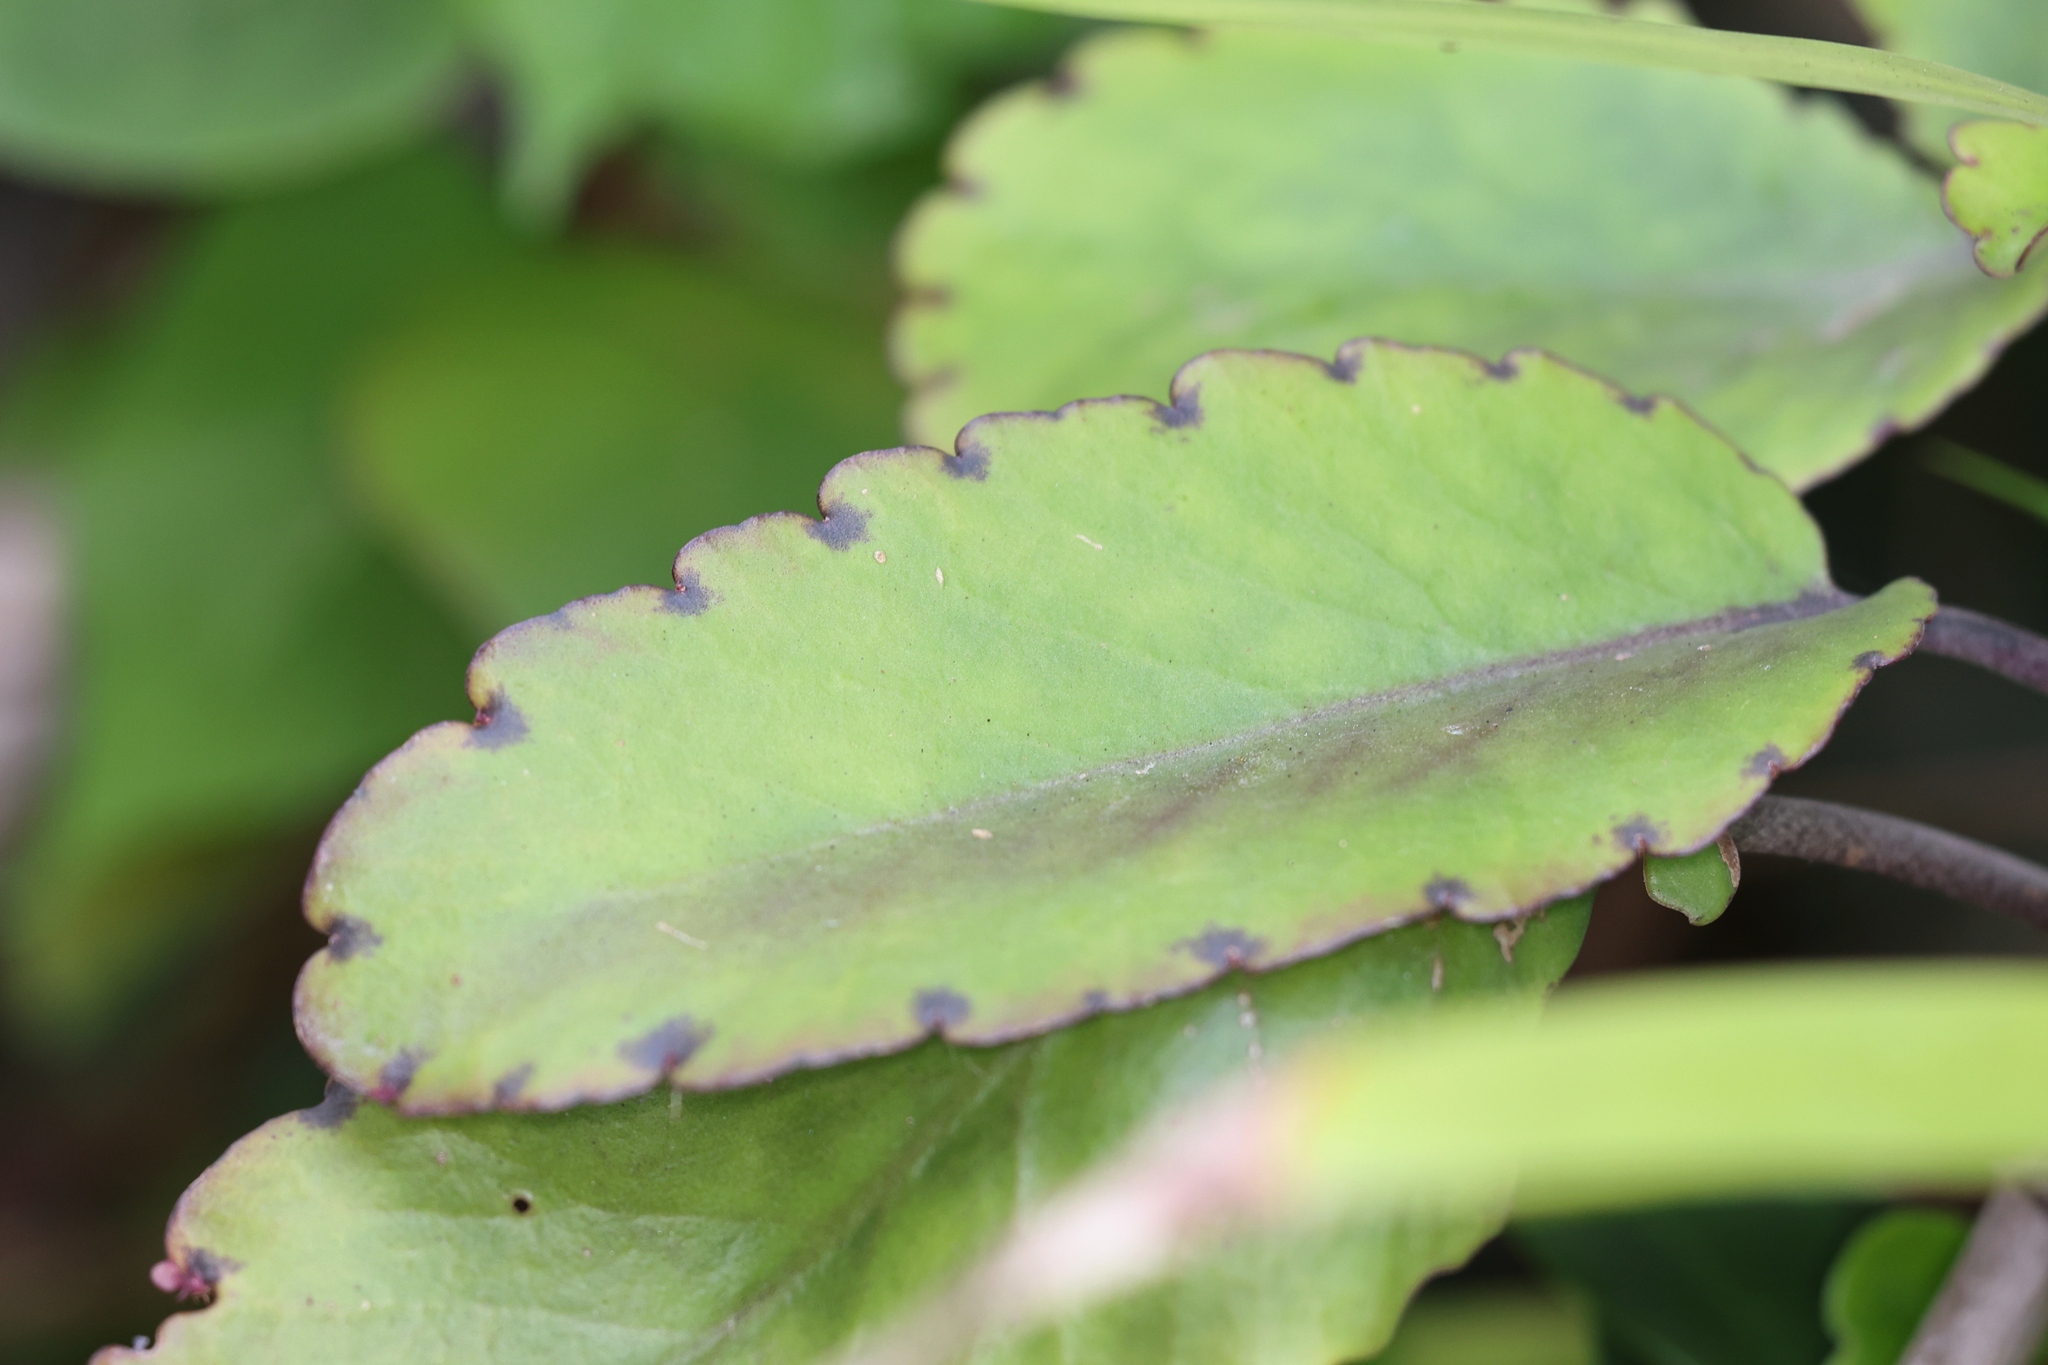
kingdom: Plantae
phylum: Tracheophyta
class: Magnoliopsida
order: Saxifragales
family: Crassulaceae
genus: Kalanchoe
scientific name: Kalanchoe pinnata
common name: Cathedral bells
